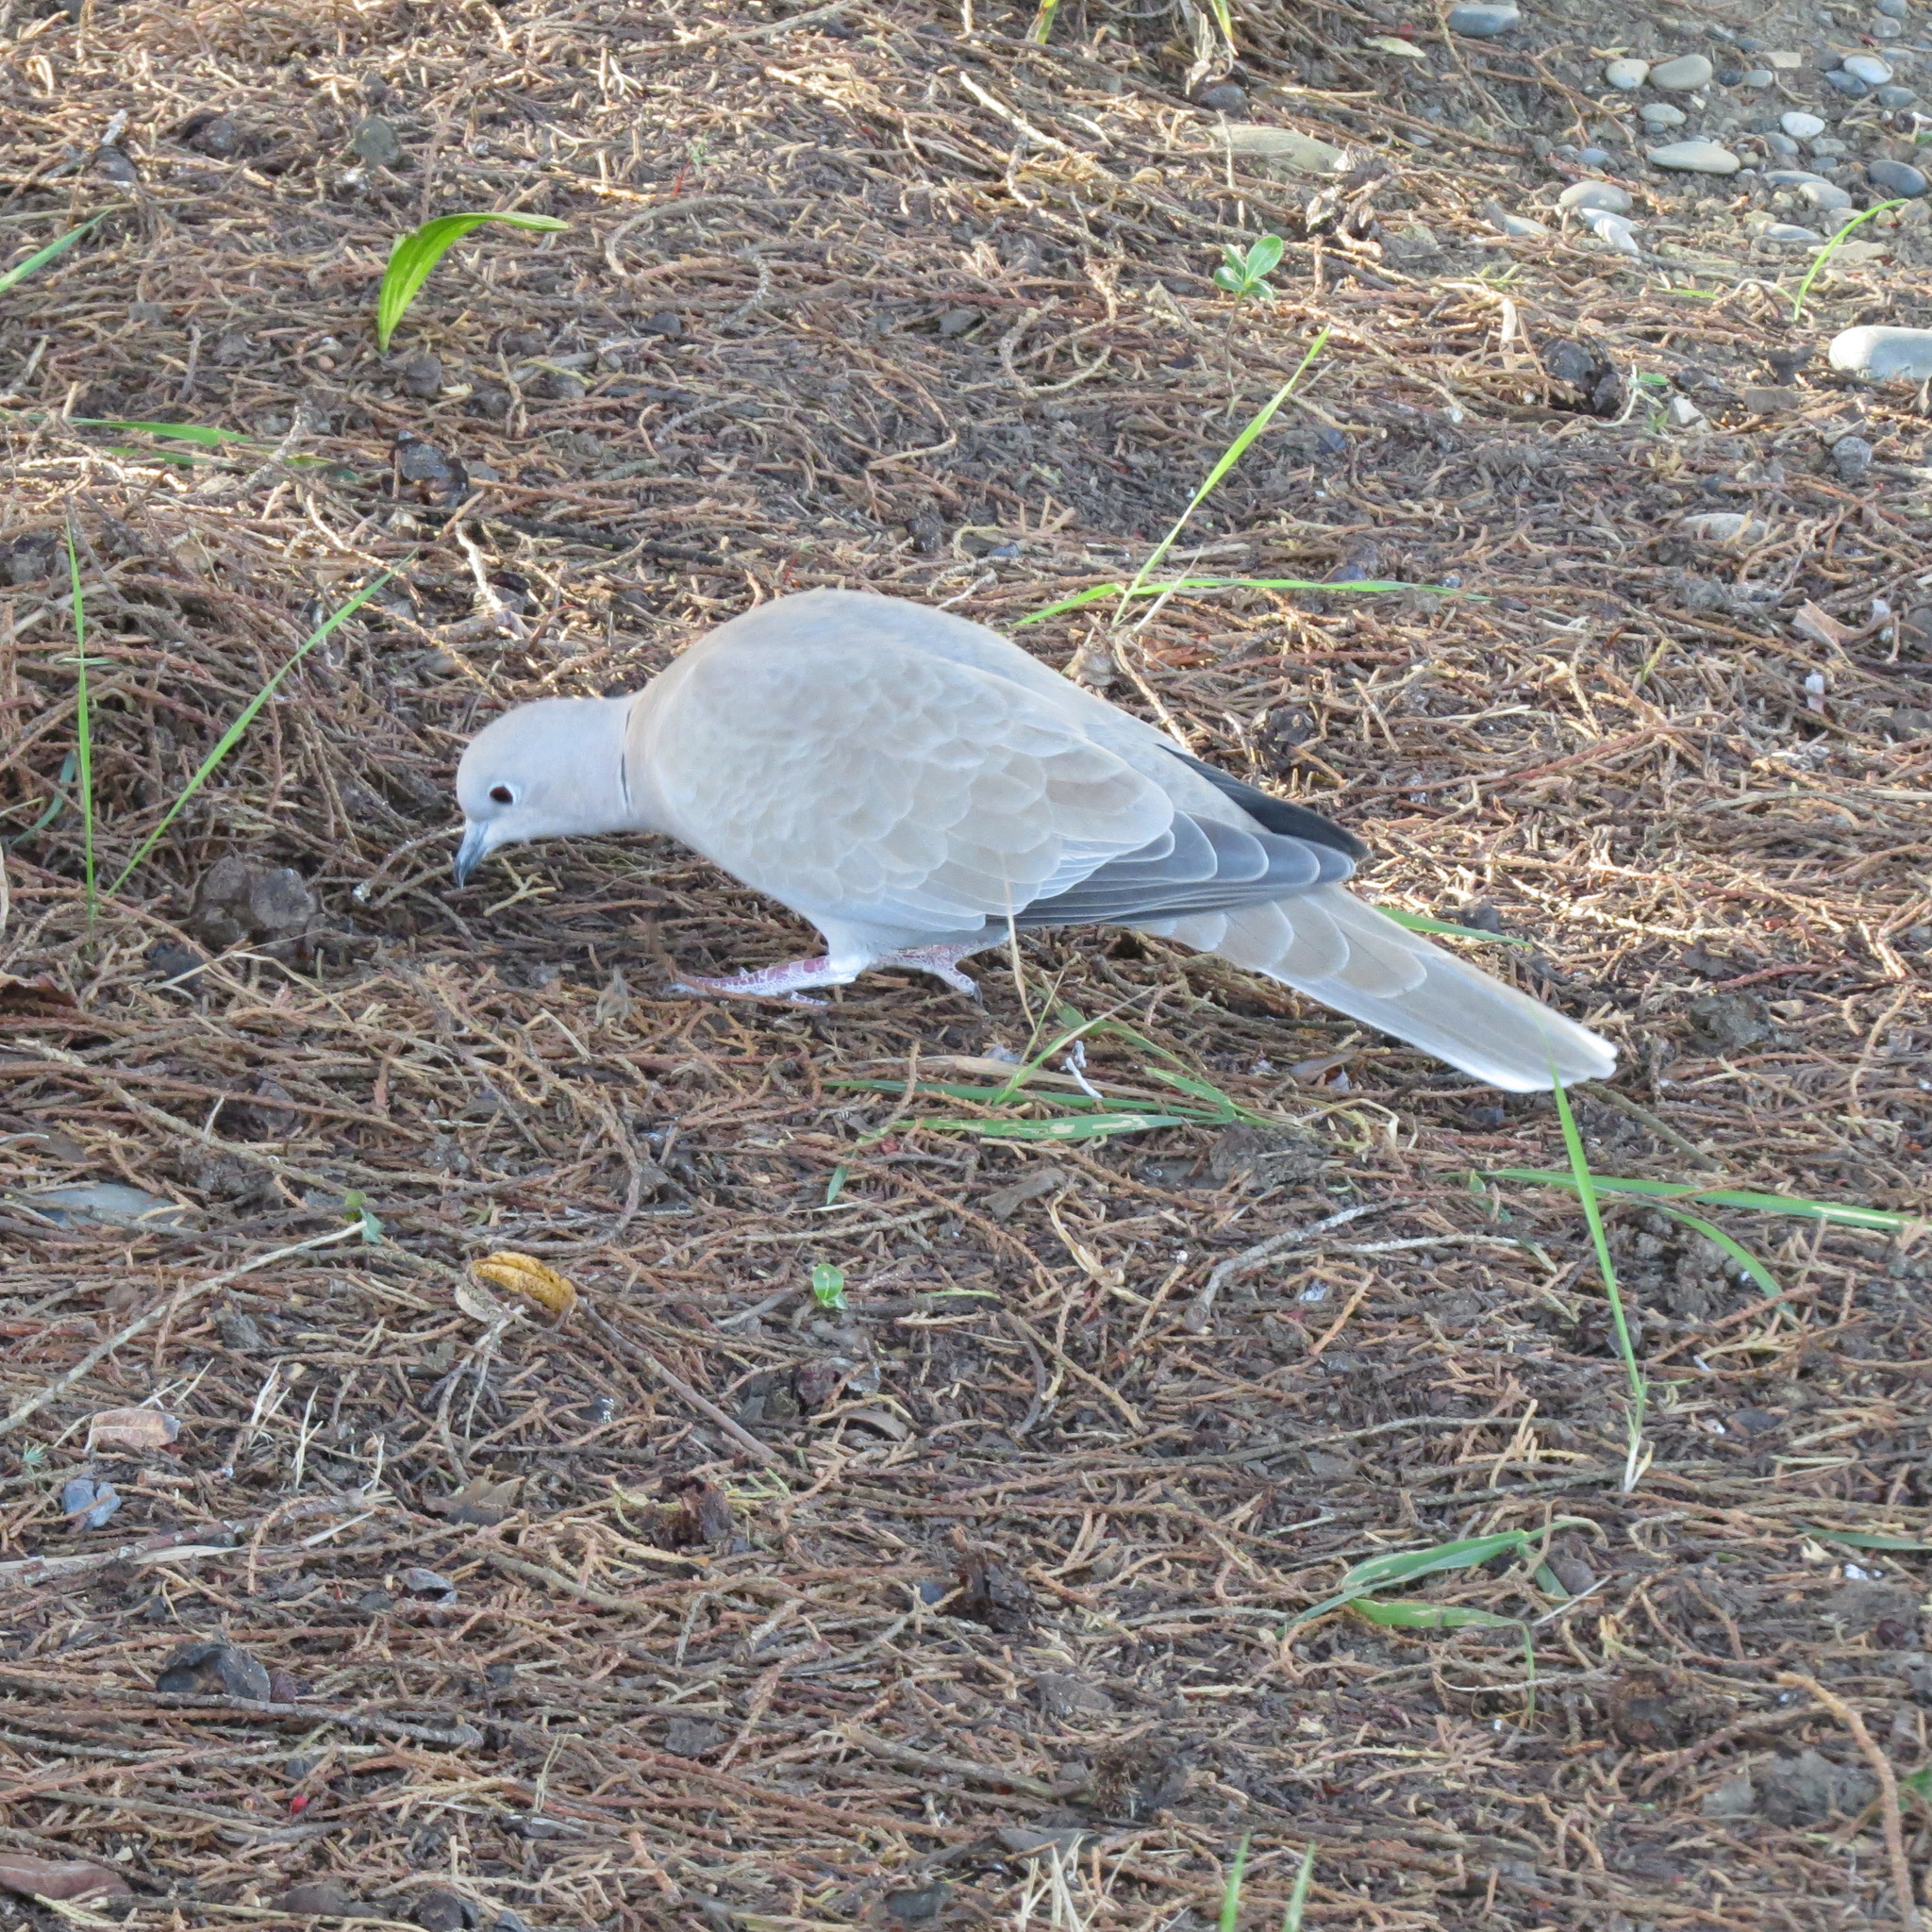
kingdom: Animalia
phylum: Chordata
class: Aves
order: Columbiformes
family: Columbidae
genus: Streptopelia
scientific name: Streptopelia decaocto
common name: Eurasian collared dove
